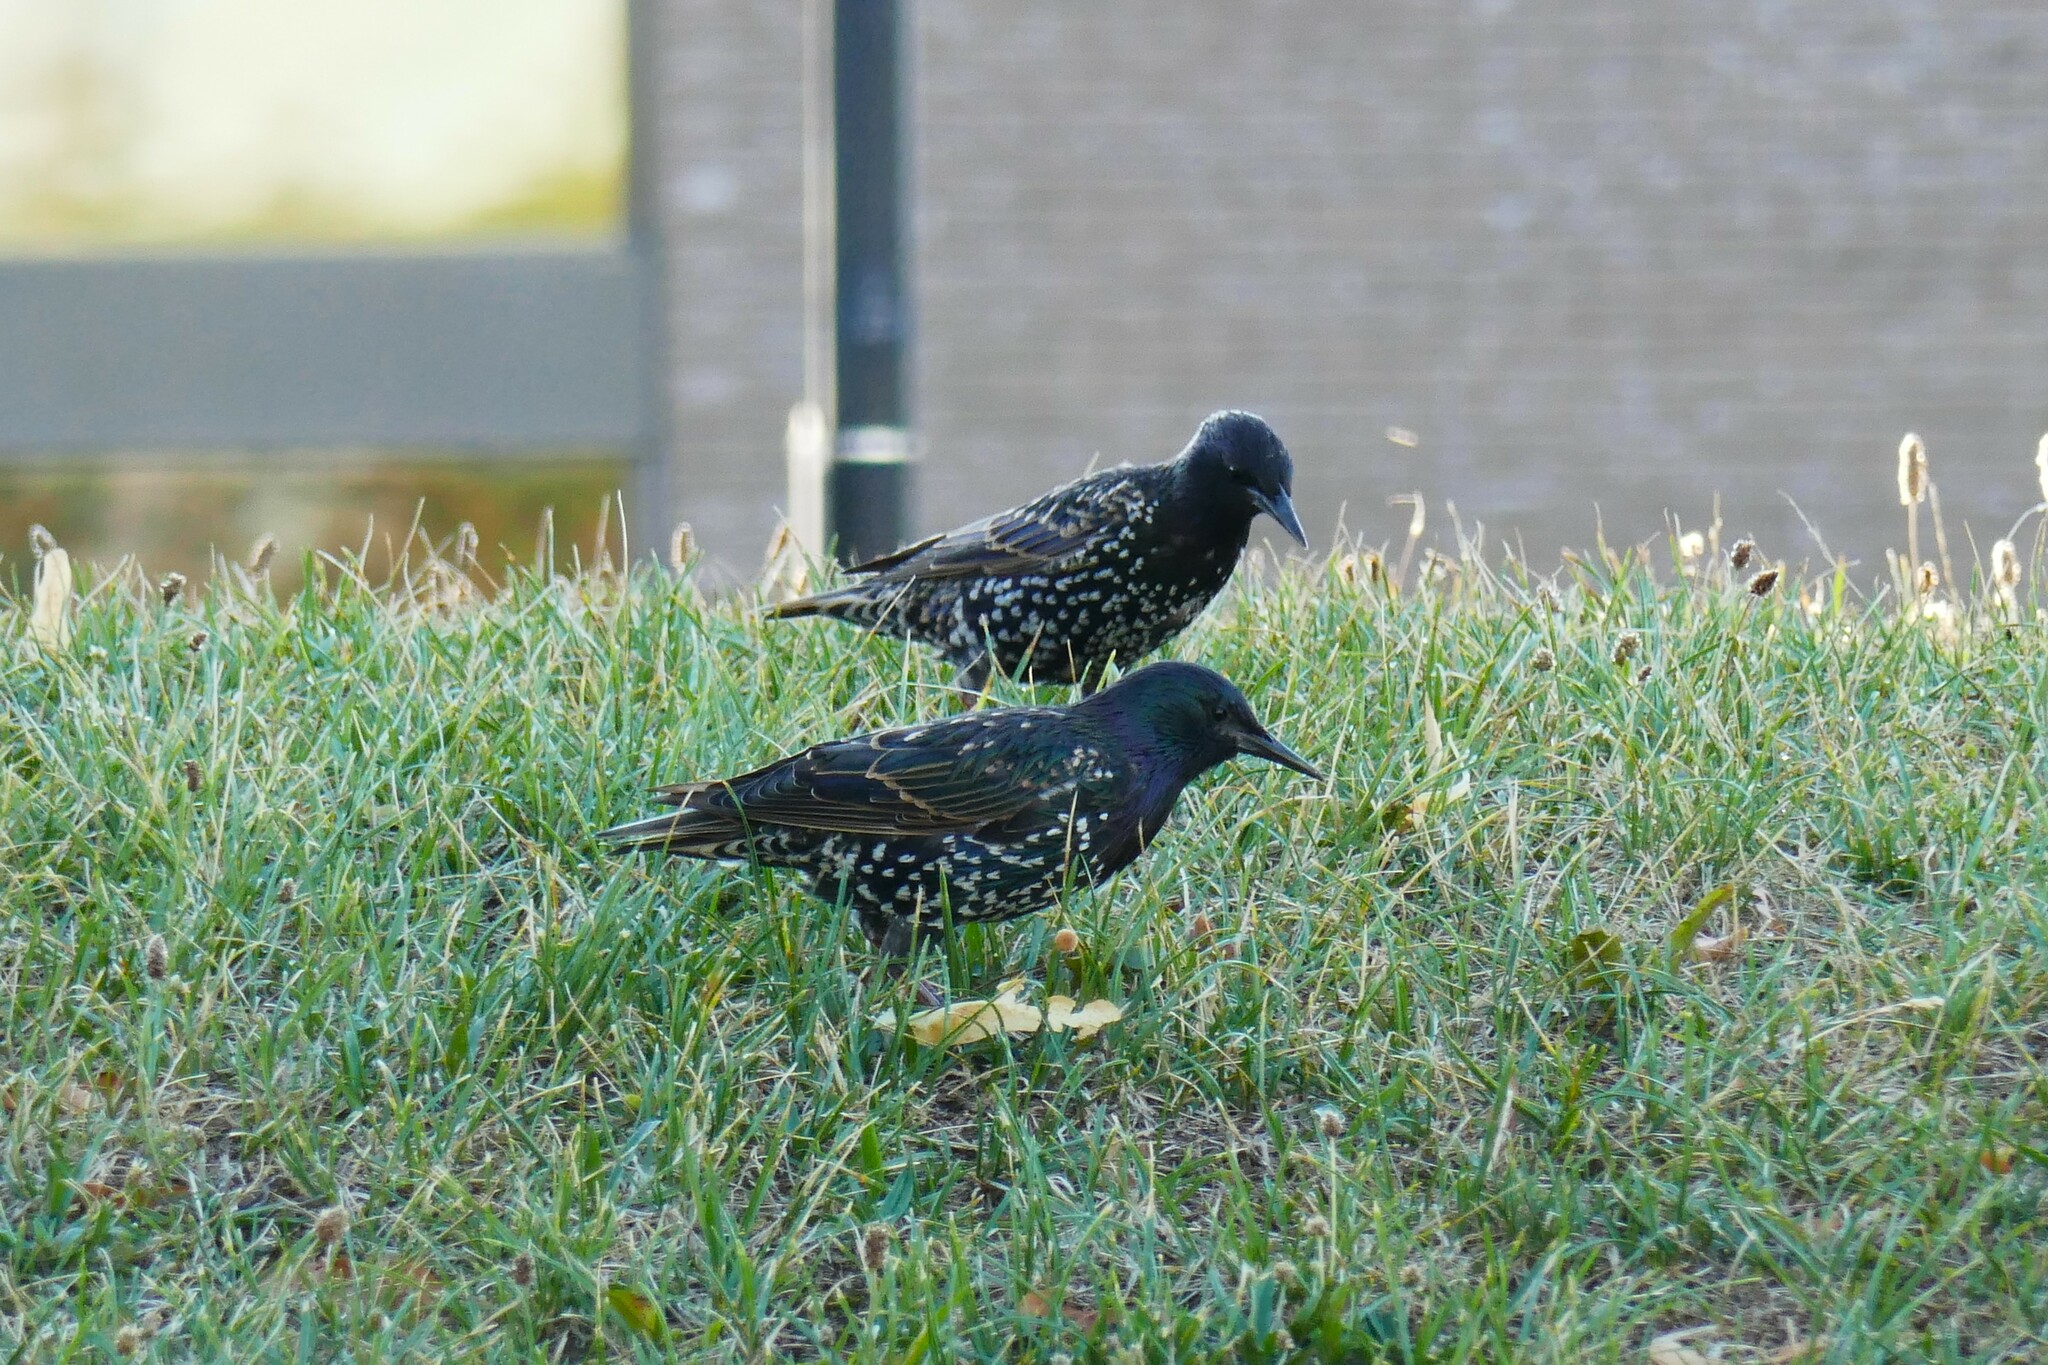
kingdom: Animalia
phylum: Chordata
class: Aves
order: Passeriformes
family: Sturnidae
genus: Sturnus
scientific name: Sturnus vulgaris
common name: Common starling
